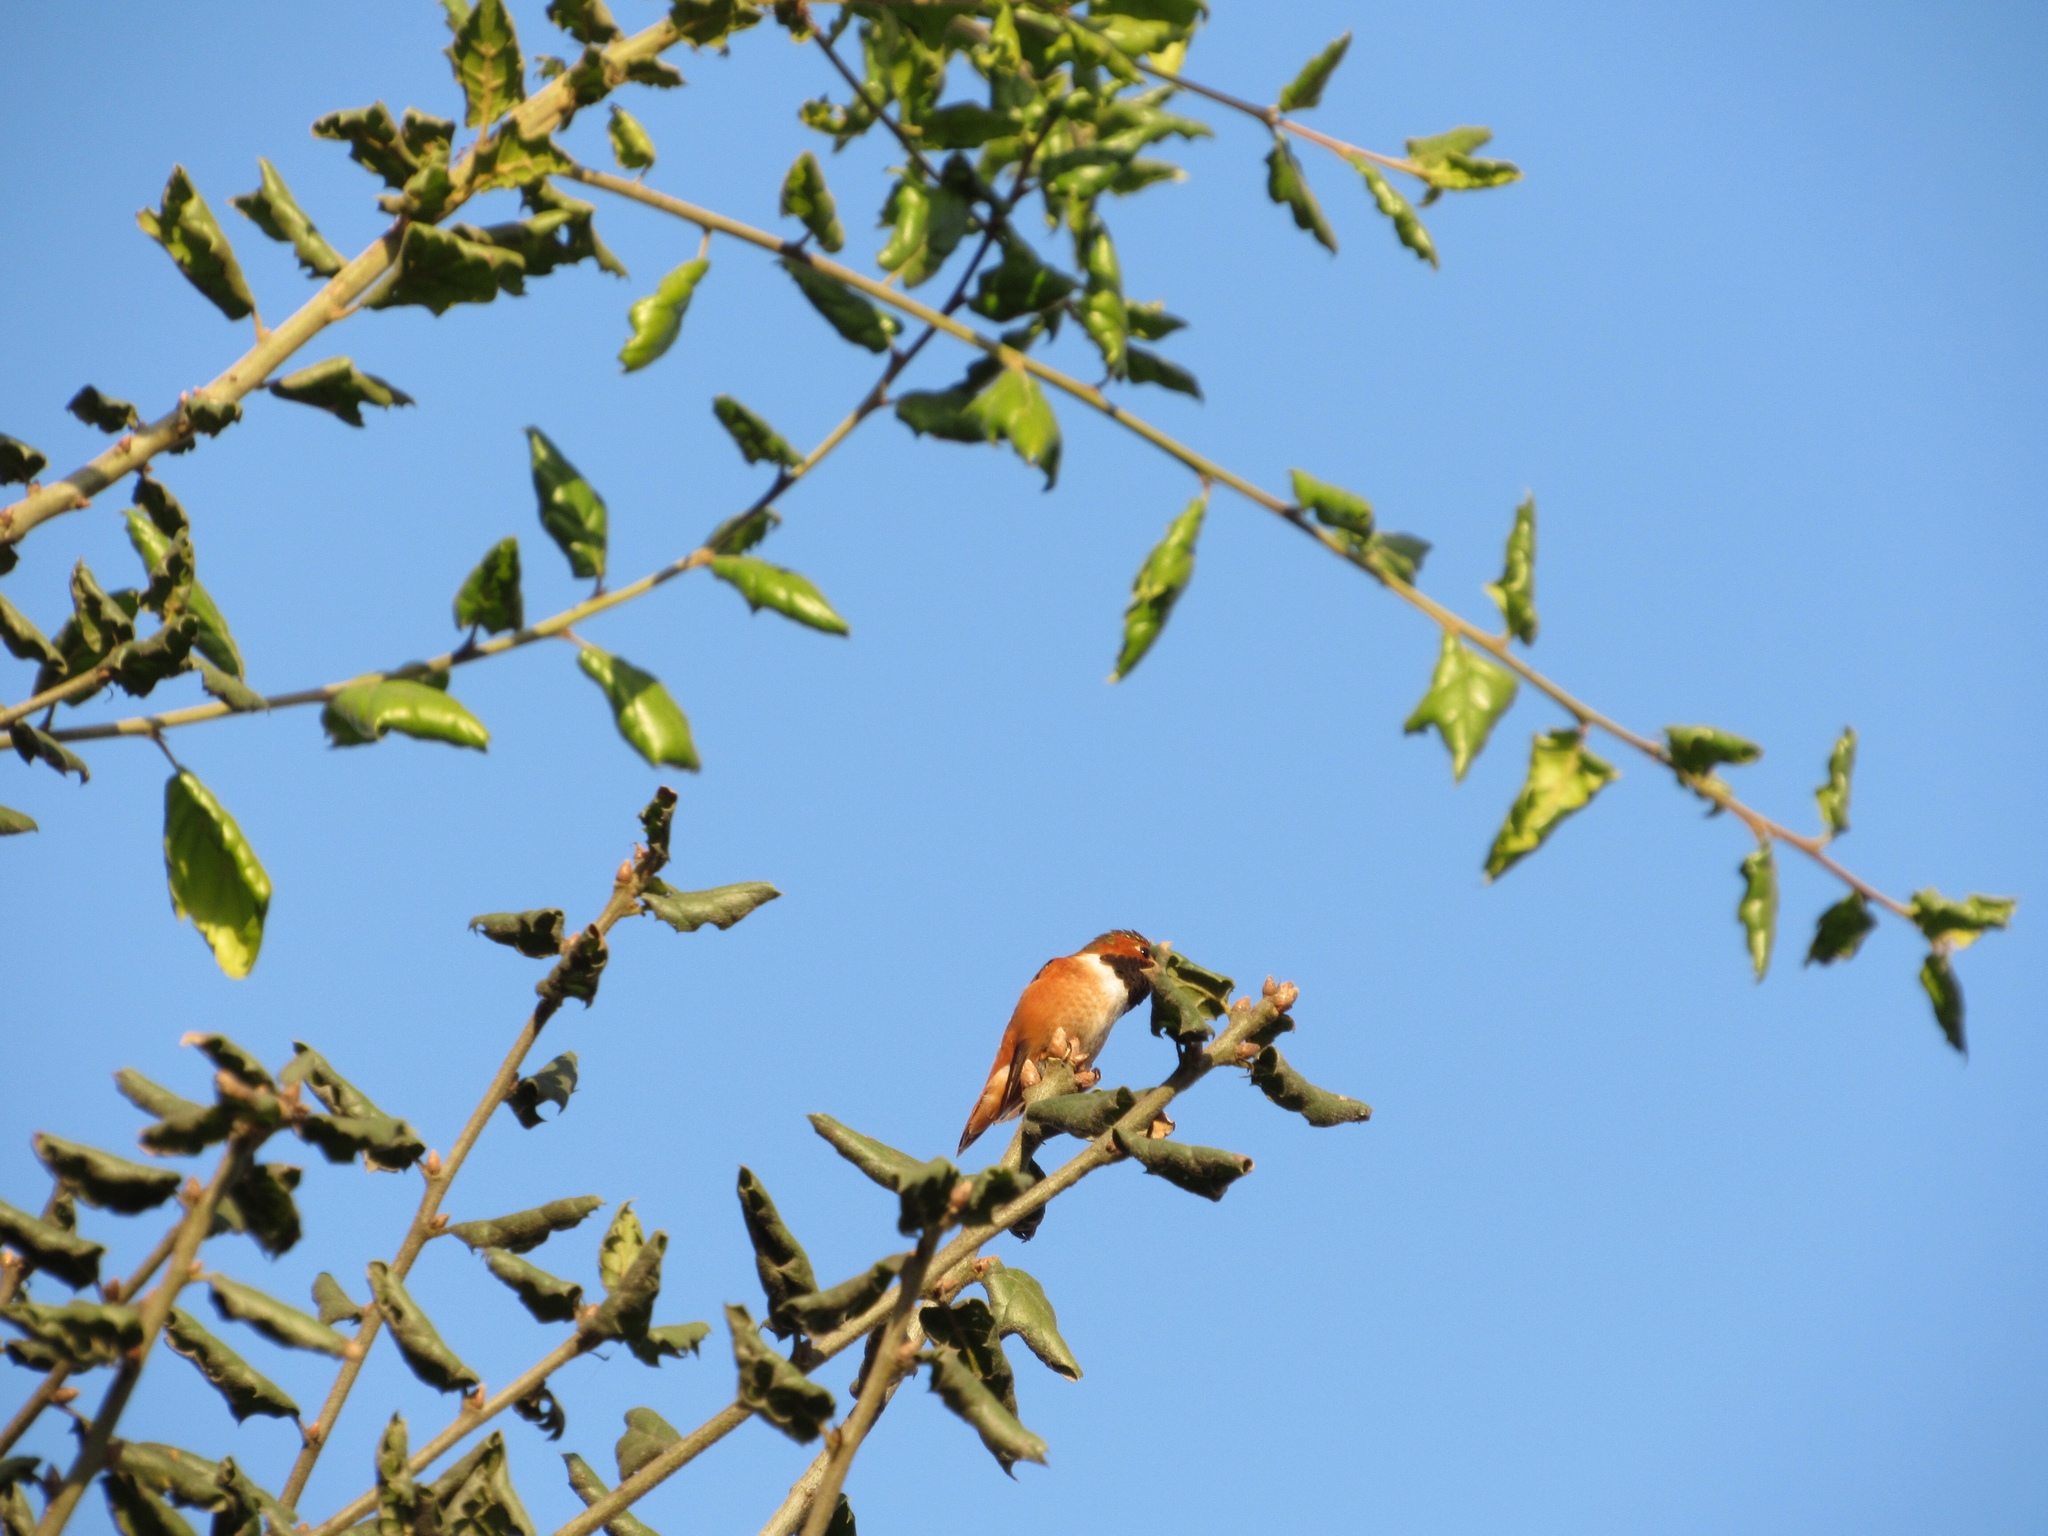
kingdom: Animalia
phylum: Chordata
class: Aves
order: Apodiformes
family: Trochilidae
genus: Selasphorus
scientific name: Selasphorus
